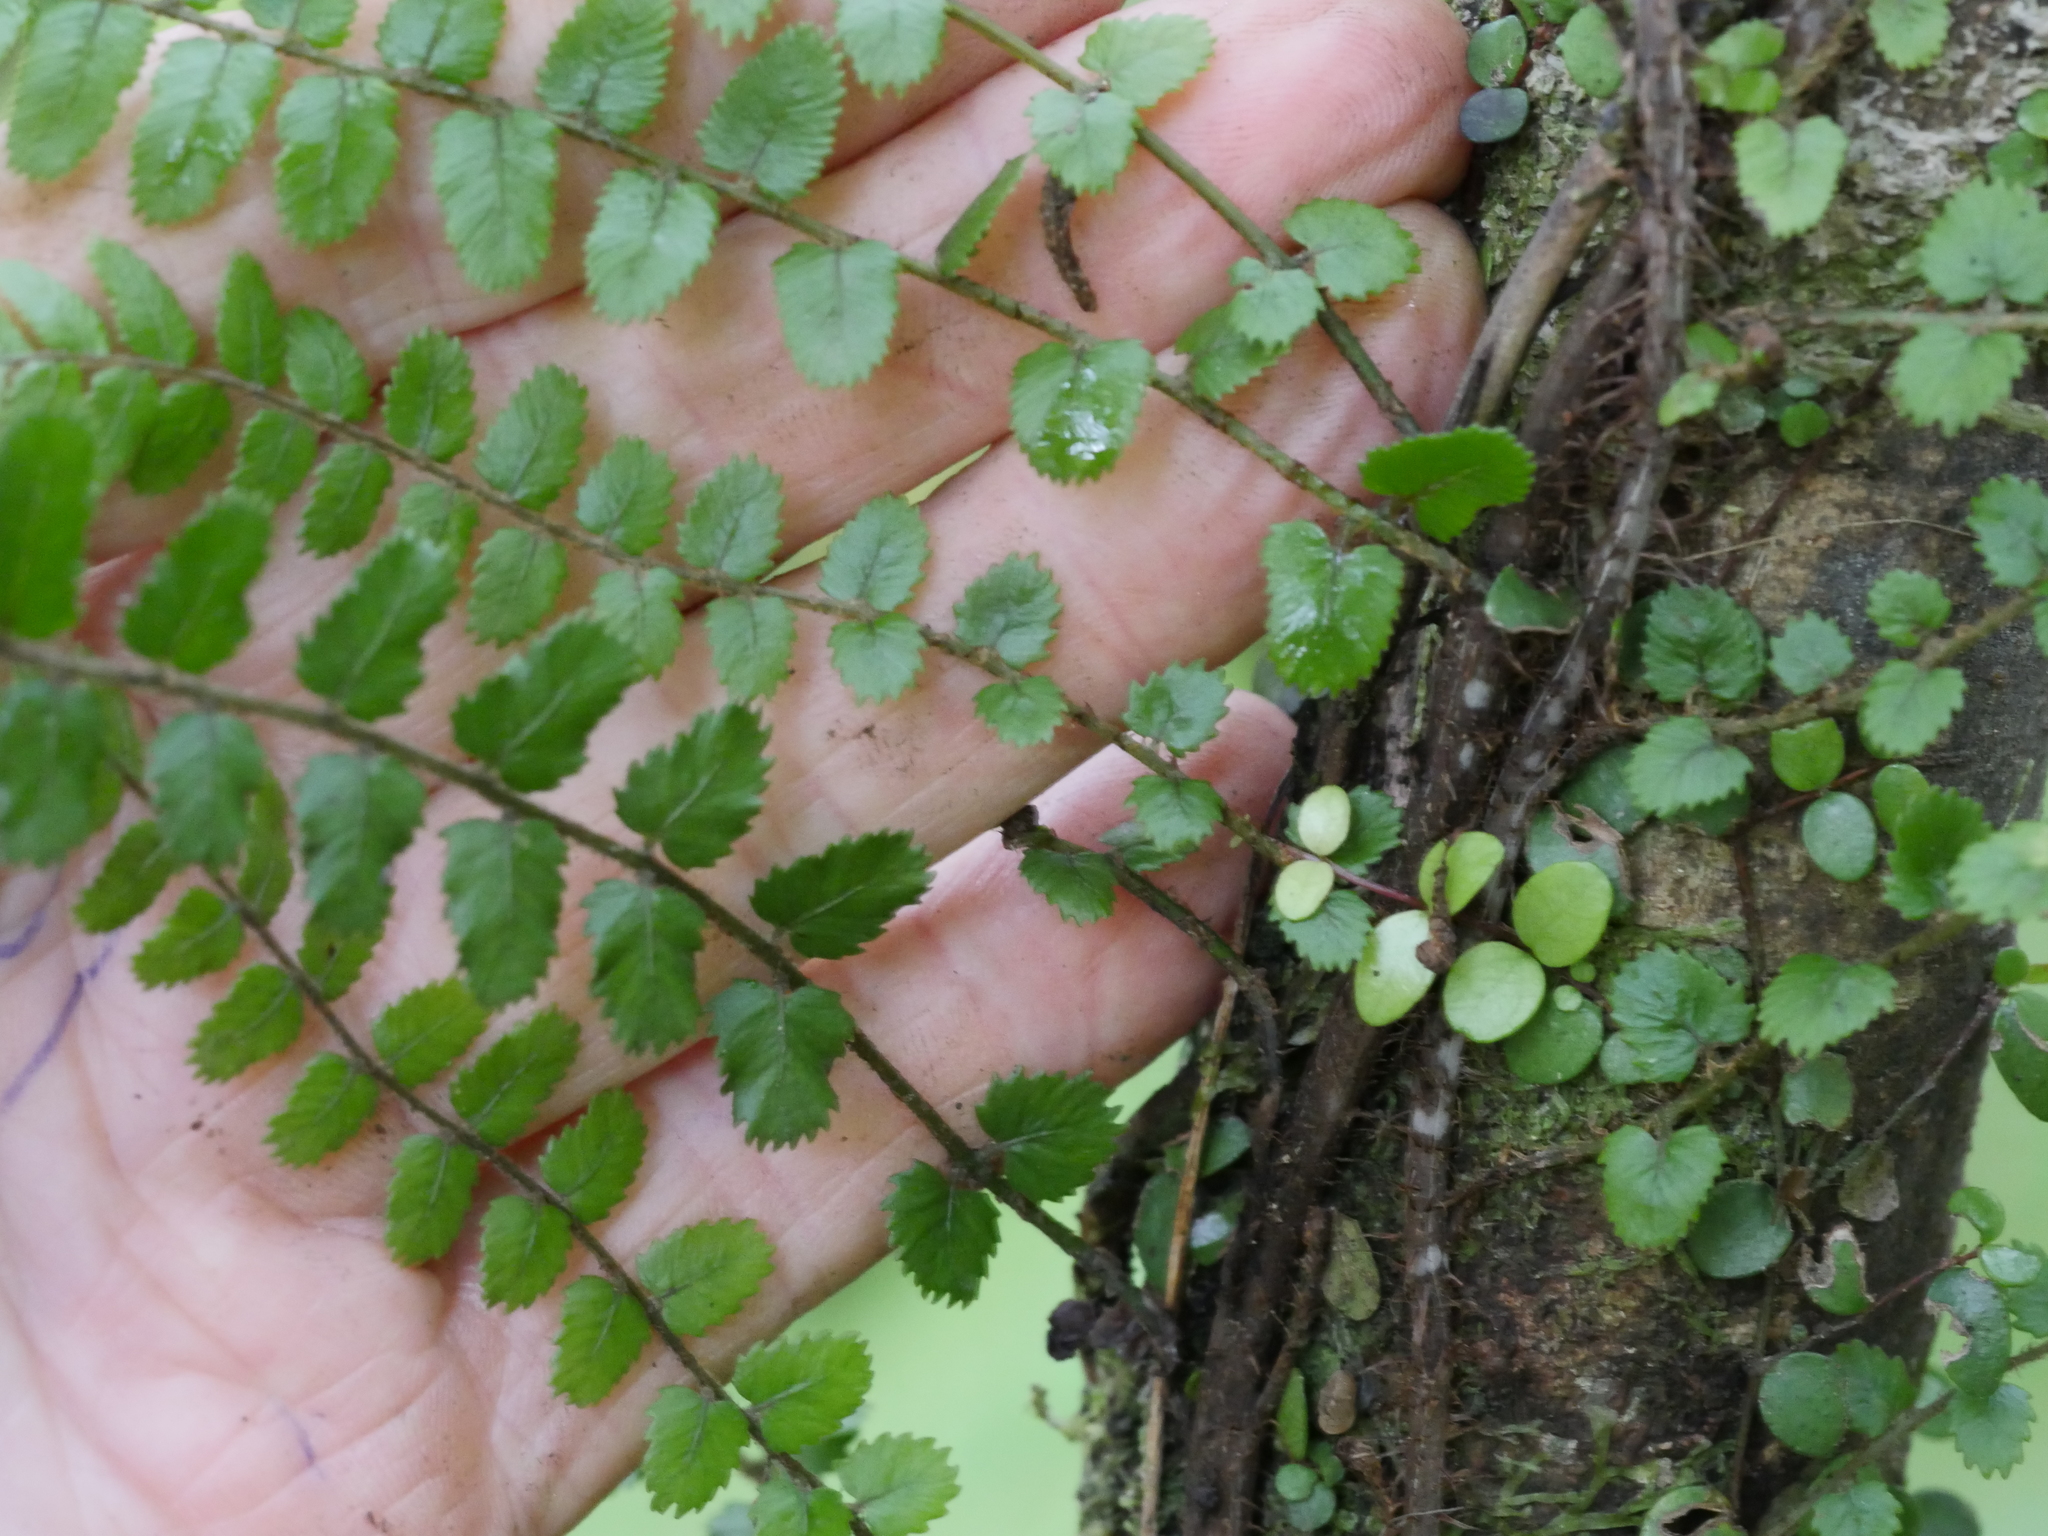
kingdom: Plantae
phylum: Tracheophyta
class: Polypodiopsida
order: Polypodiales
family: Blechnaceae
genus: Icarus
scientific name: Icarus filiformis
